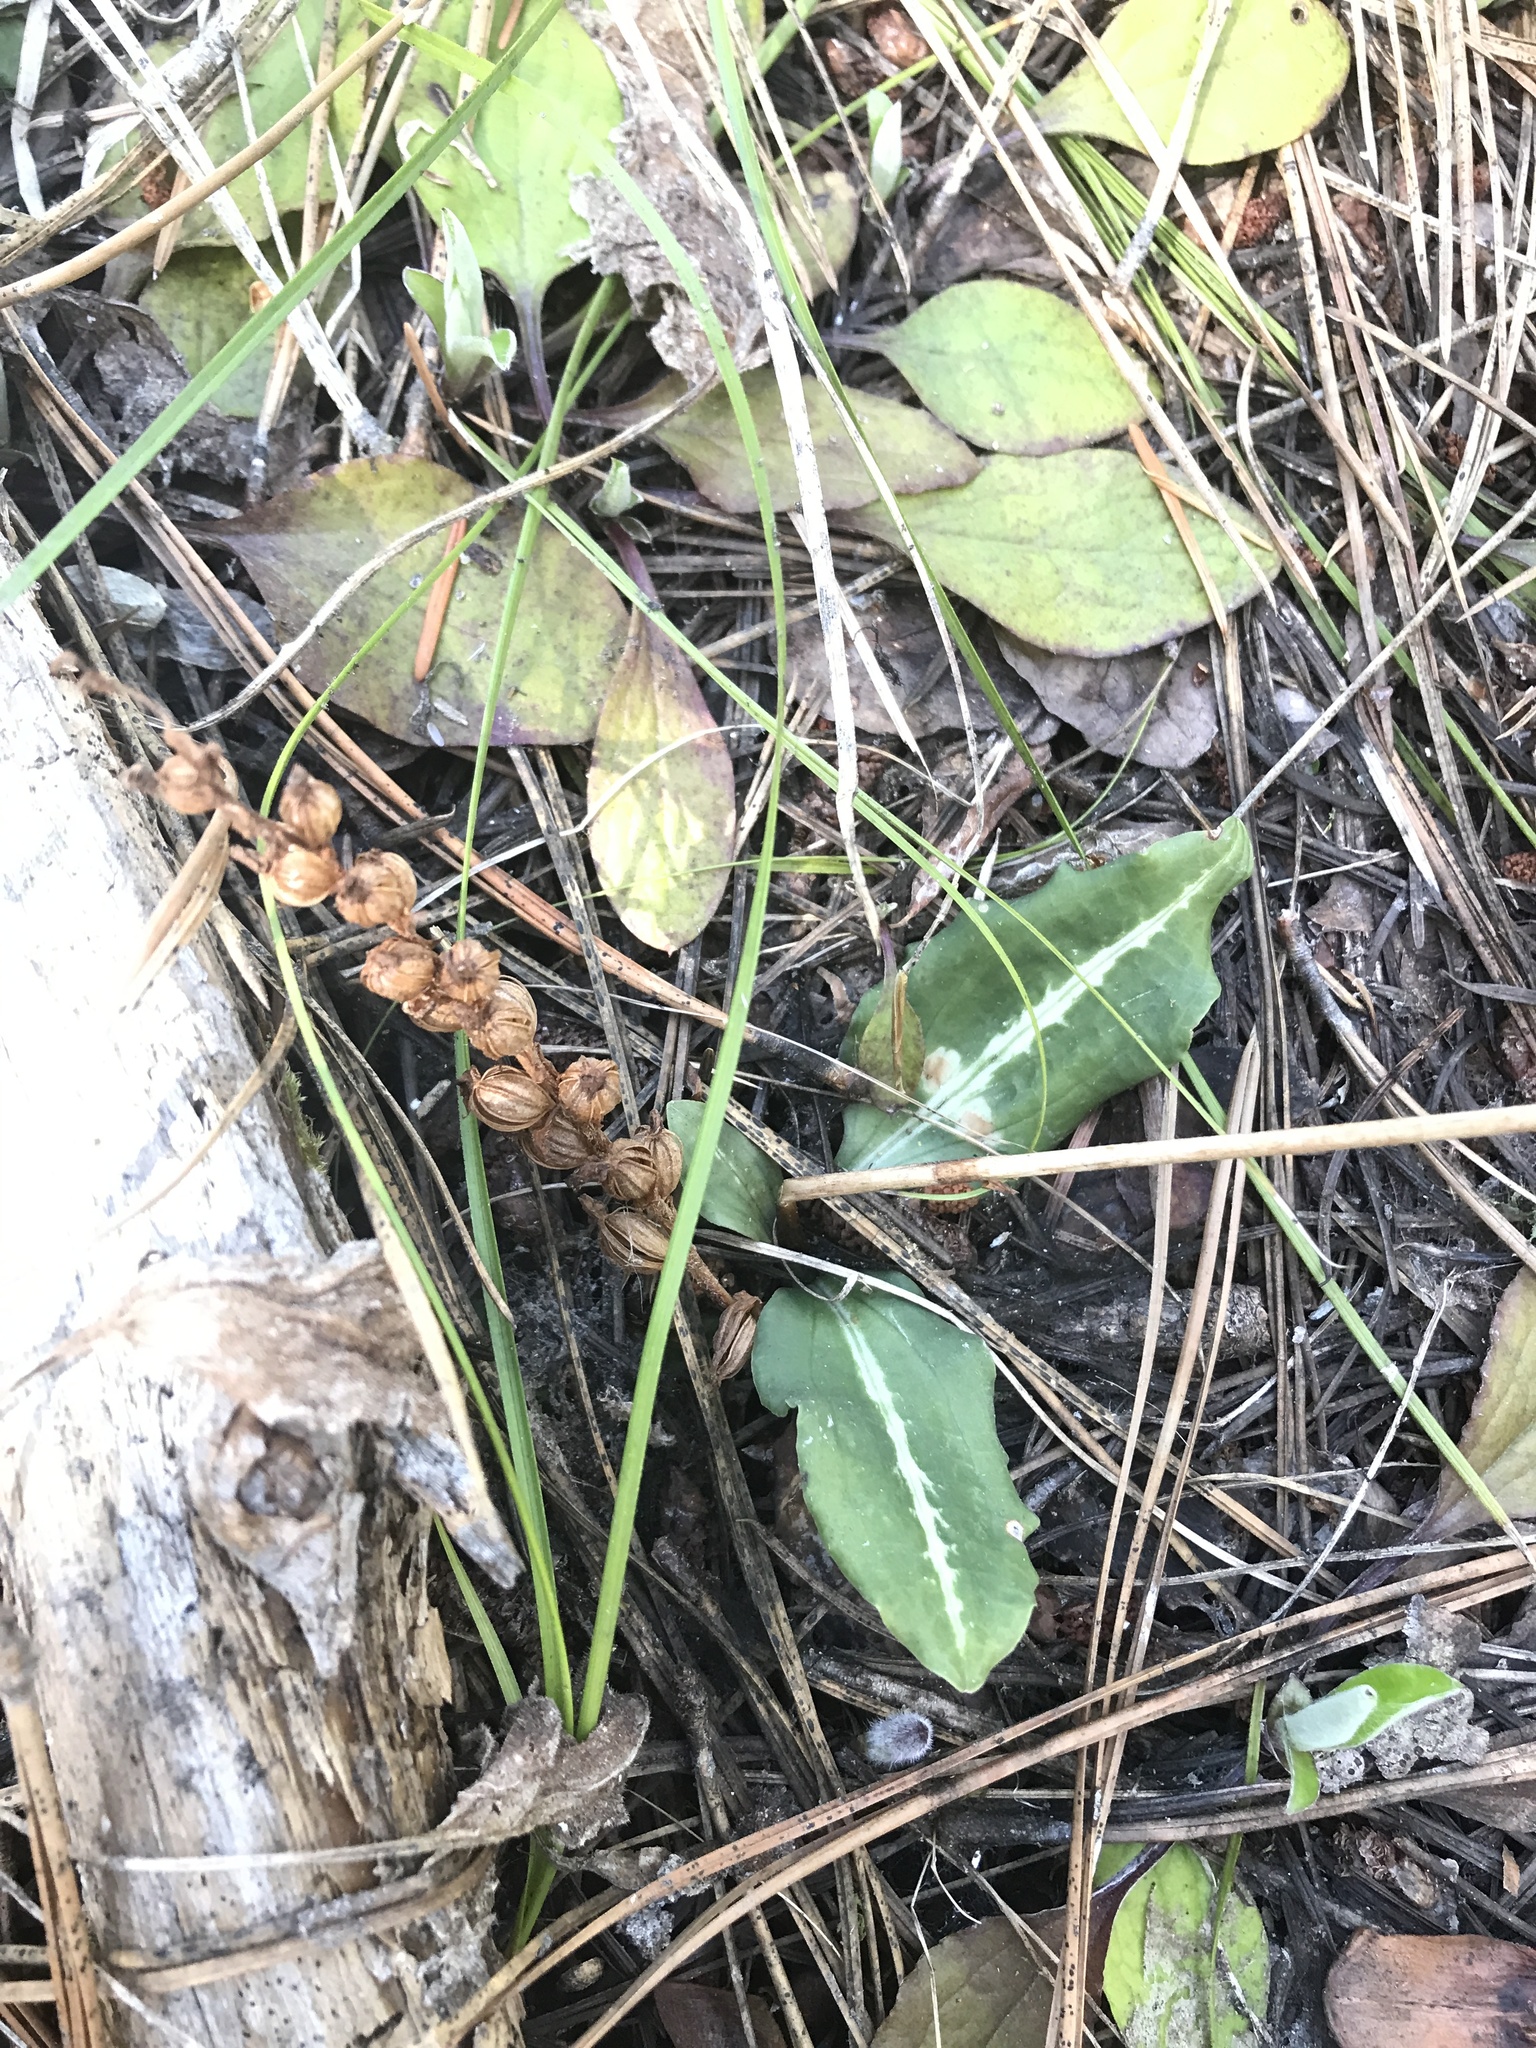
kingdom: Plantae
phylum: Tracheophyta
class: Liliopsida
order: Asparagales
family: Orchidaceae
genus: Goodyera
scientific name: Goodyera oblongifolia
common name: Giant rattlesnake-plantain
